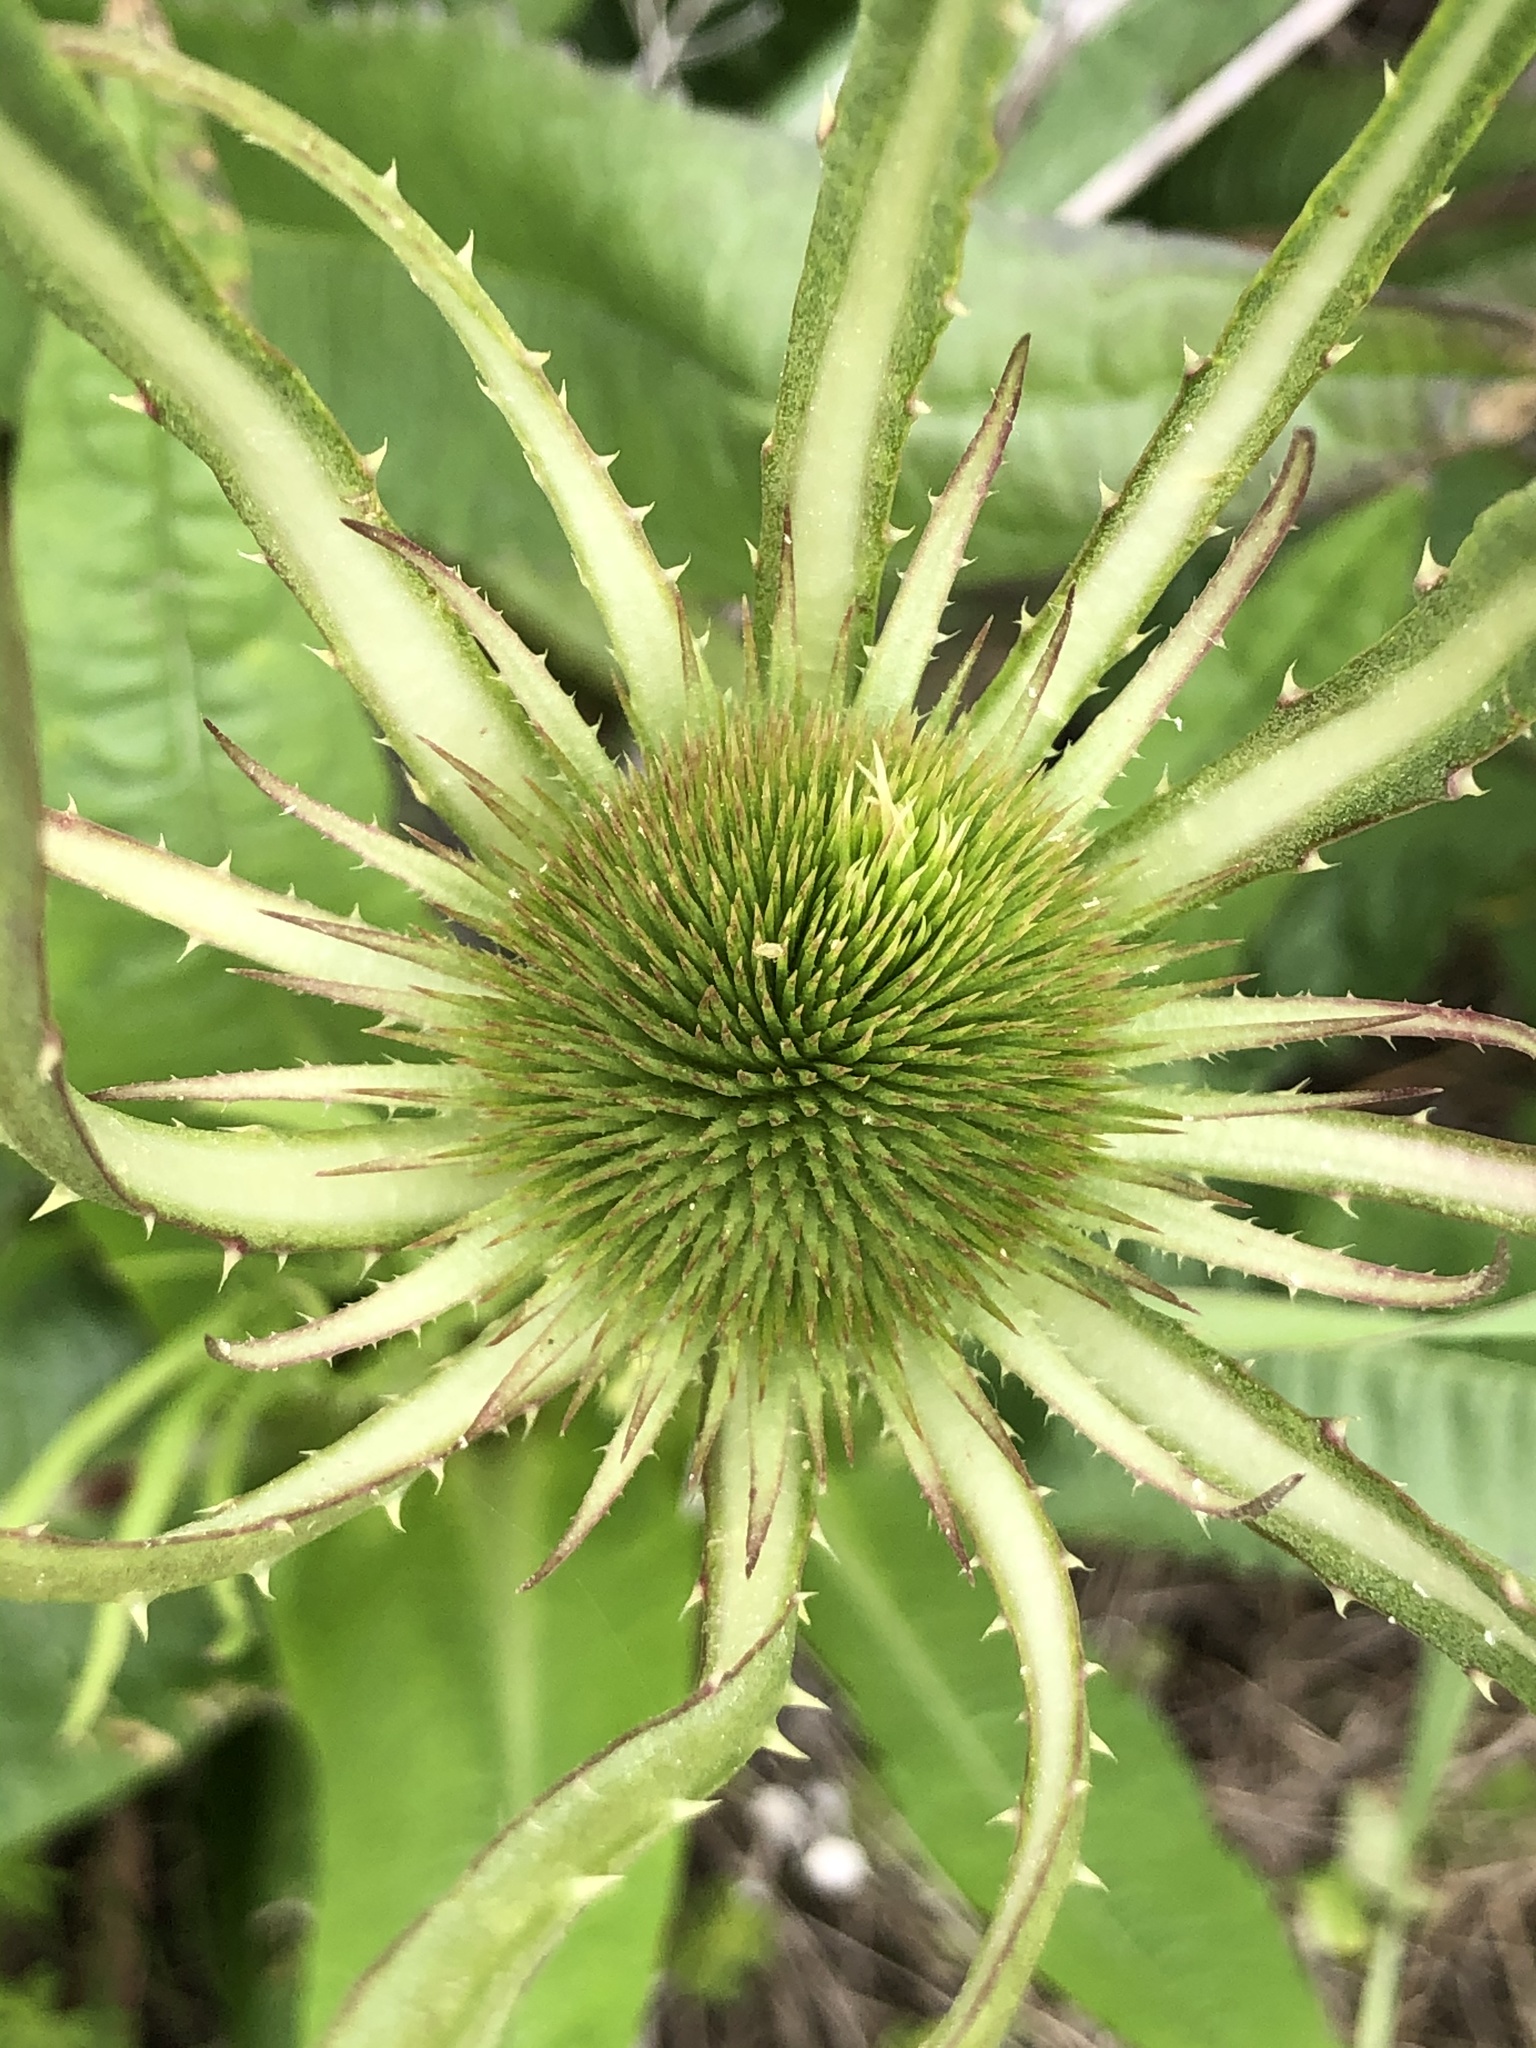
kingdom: Plantae
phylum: Tracheophyta
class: Magnoliopsida
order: Dipsacales
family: Caprifoliaceae
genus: Dipsacus
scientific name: Dipsacus fullonum
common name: Teasel
